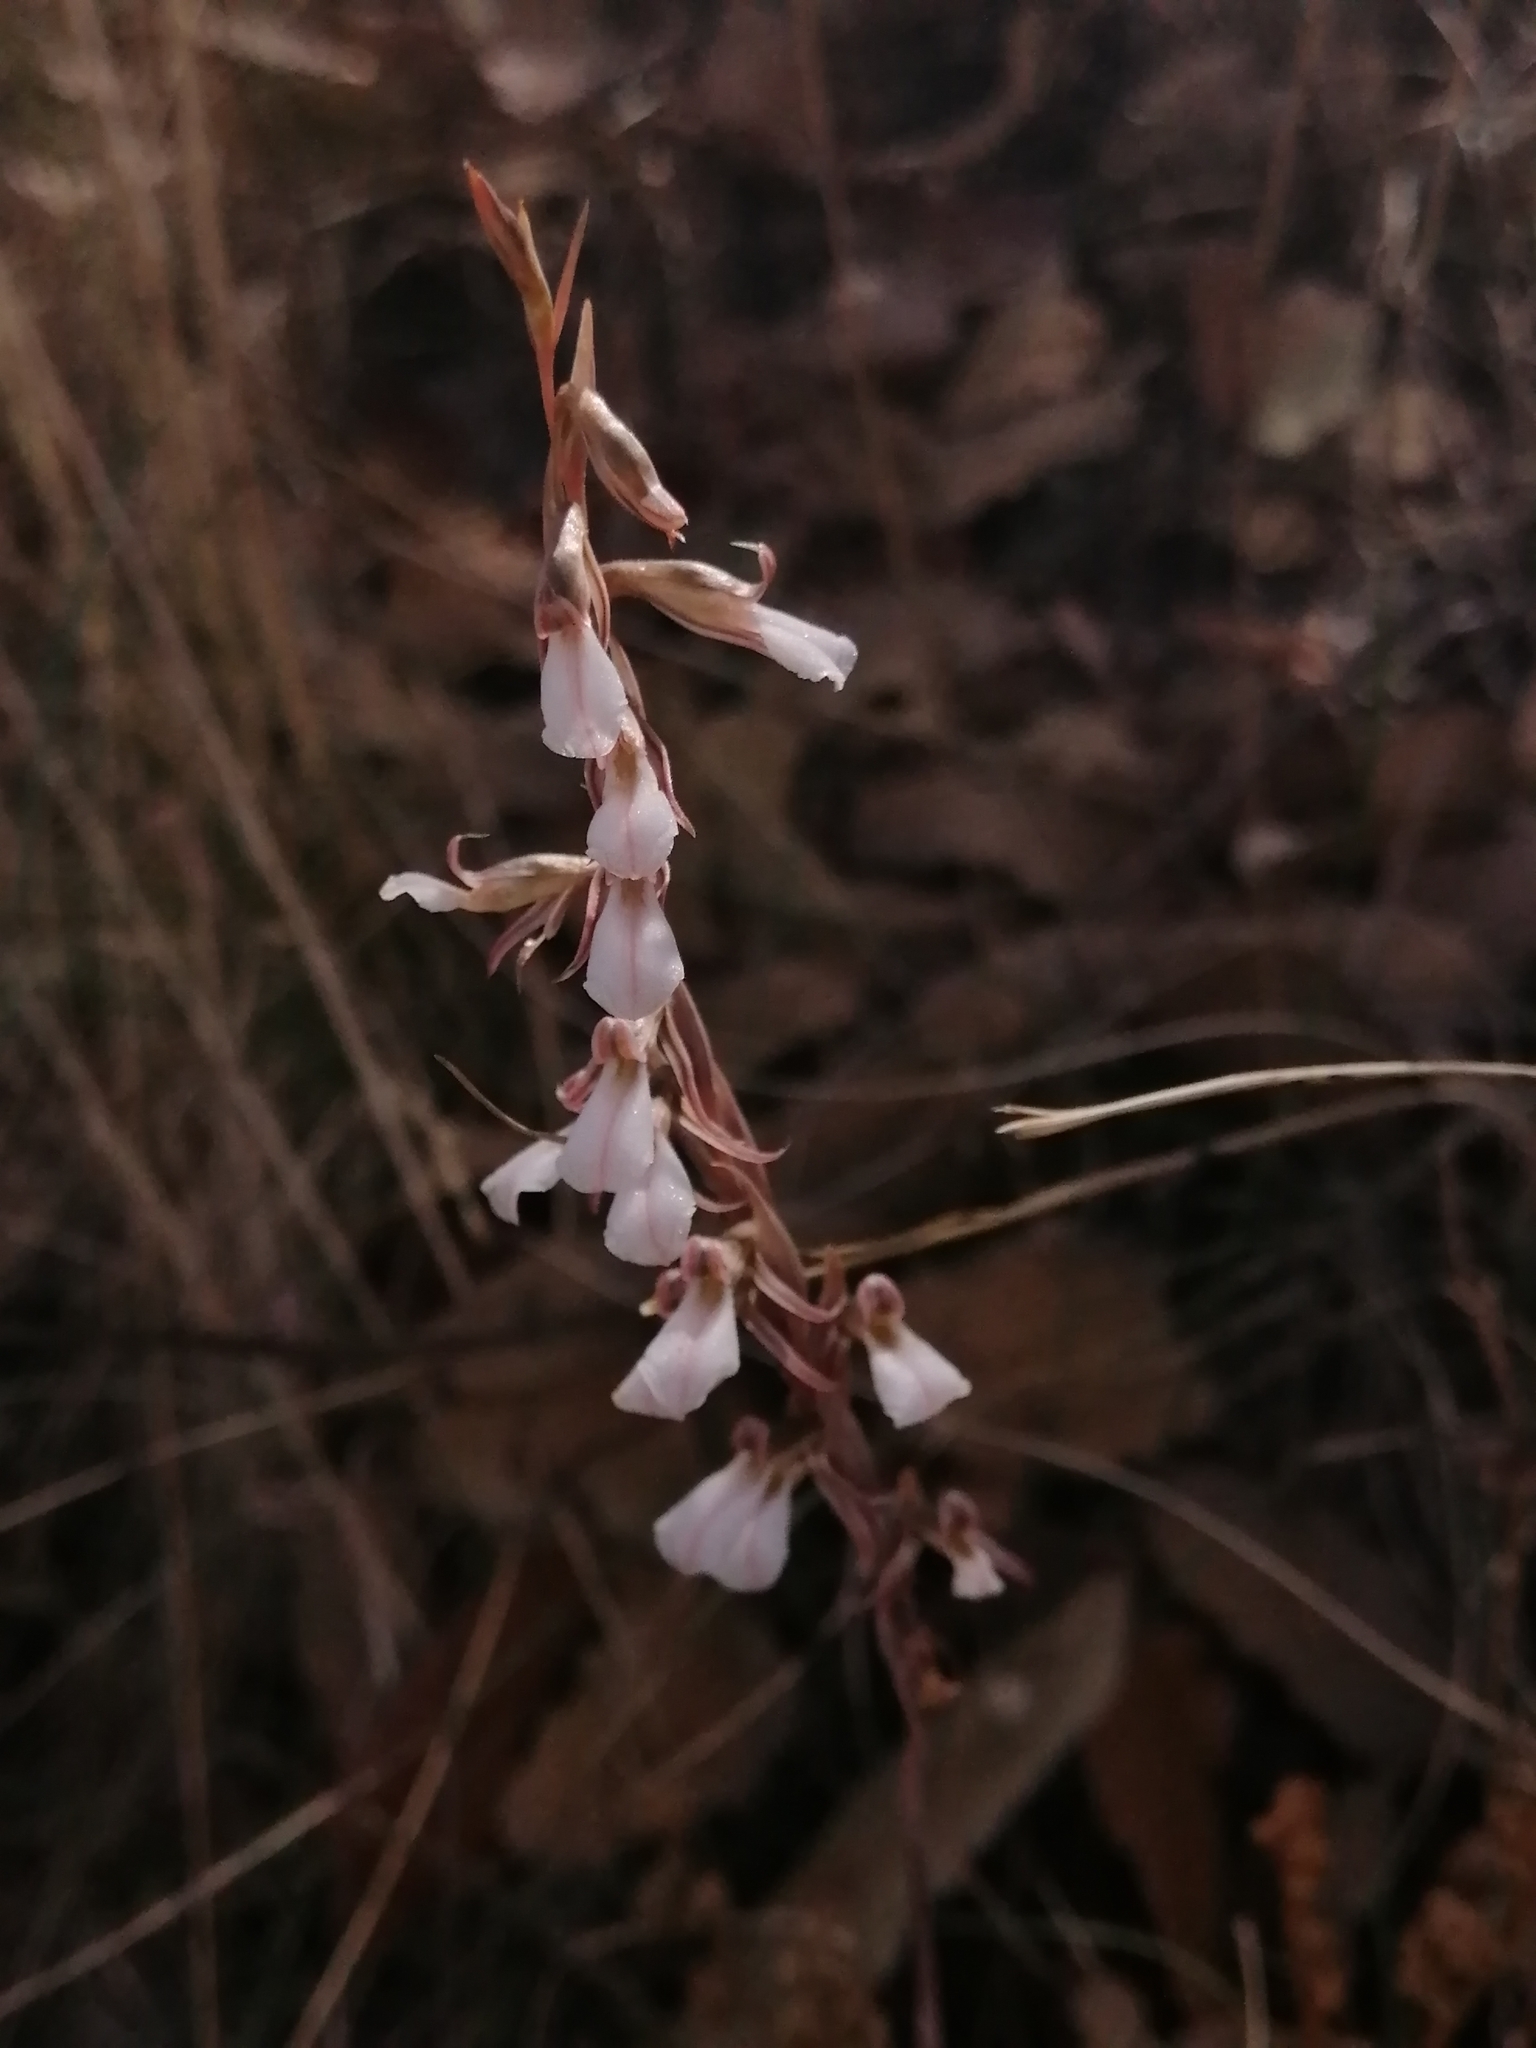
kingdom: Plantae
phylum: Tracheophyta
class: Liliopsida
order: Asparagales
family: Orchidaceae
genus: Greenwoodiella
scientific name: Greenwoodiella micrantha
